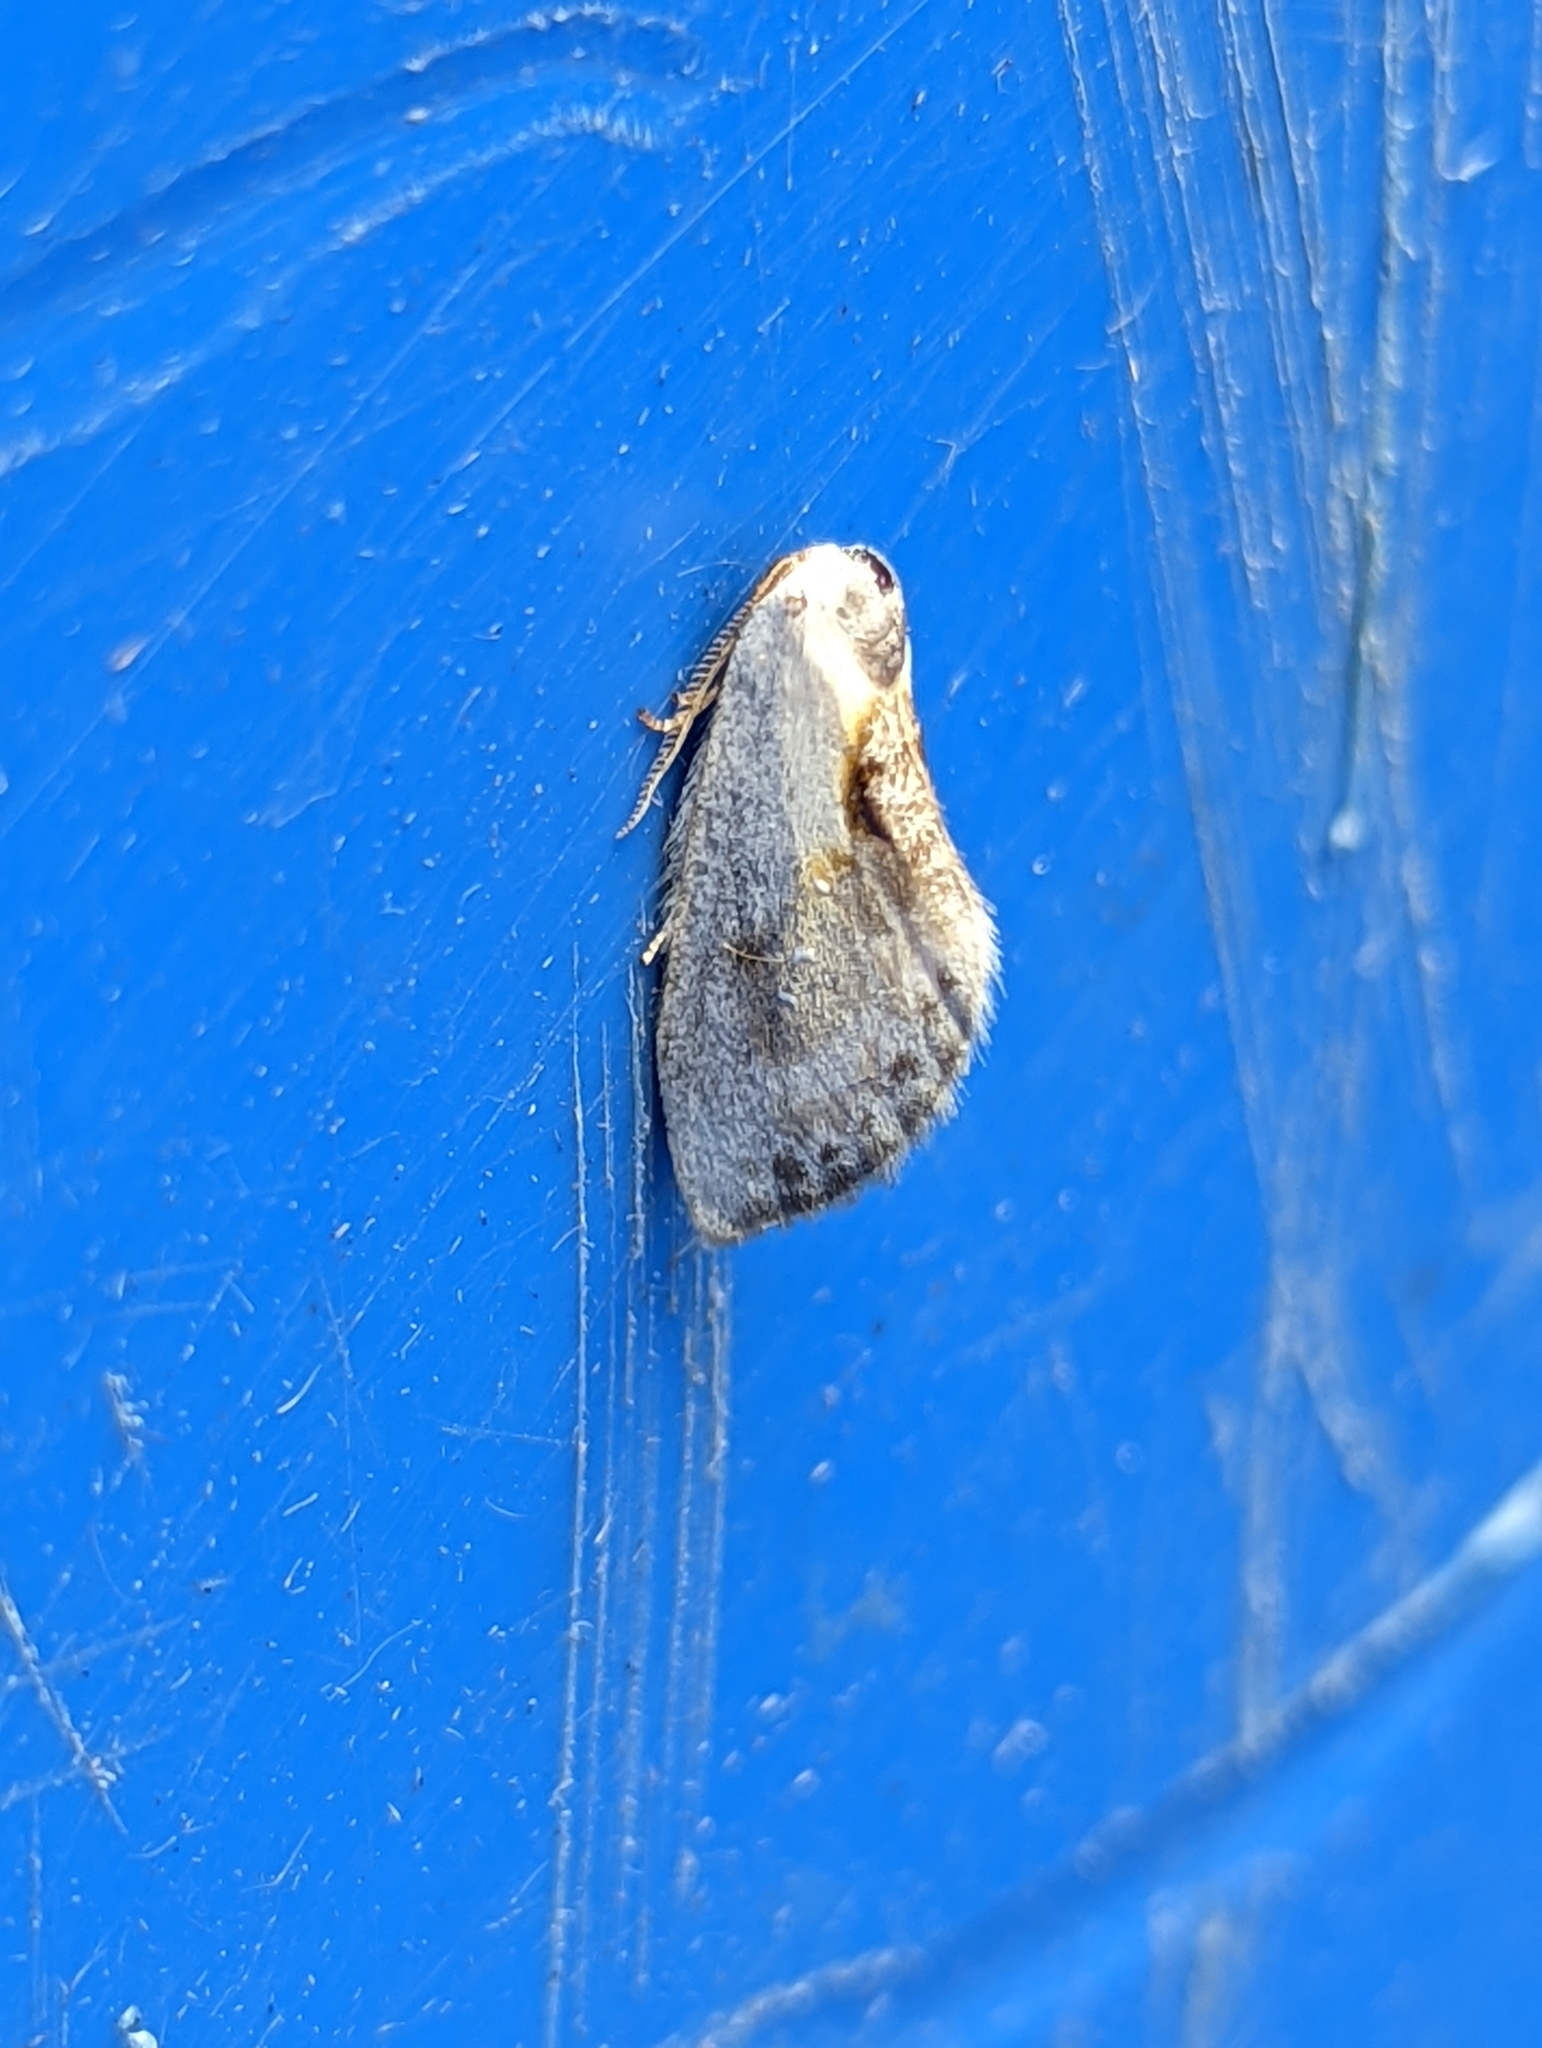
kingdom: Animalia
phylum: Arthropoda
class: Insecta
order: Lepidoptera
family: Drepanidae
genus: Cilix
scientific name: Cilix glaucata
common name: Chinese character
